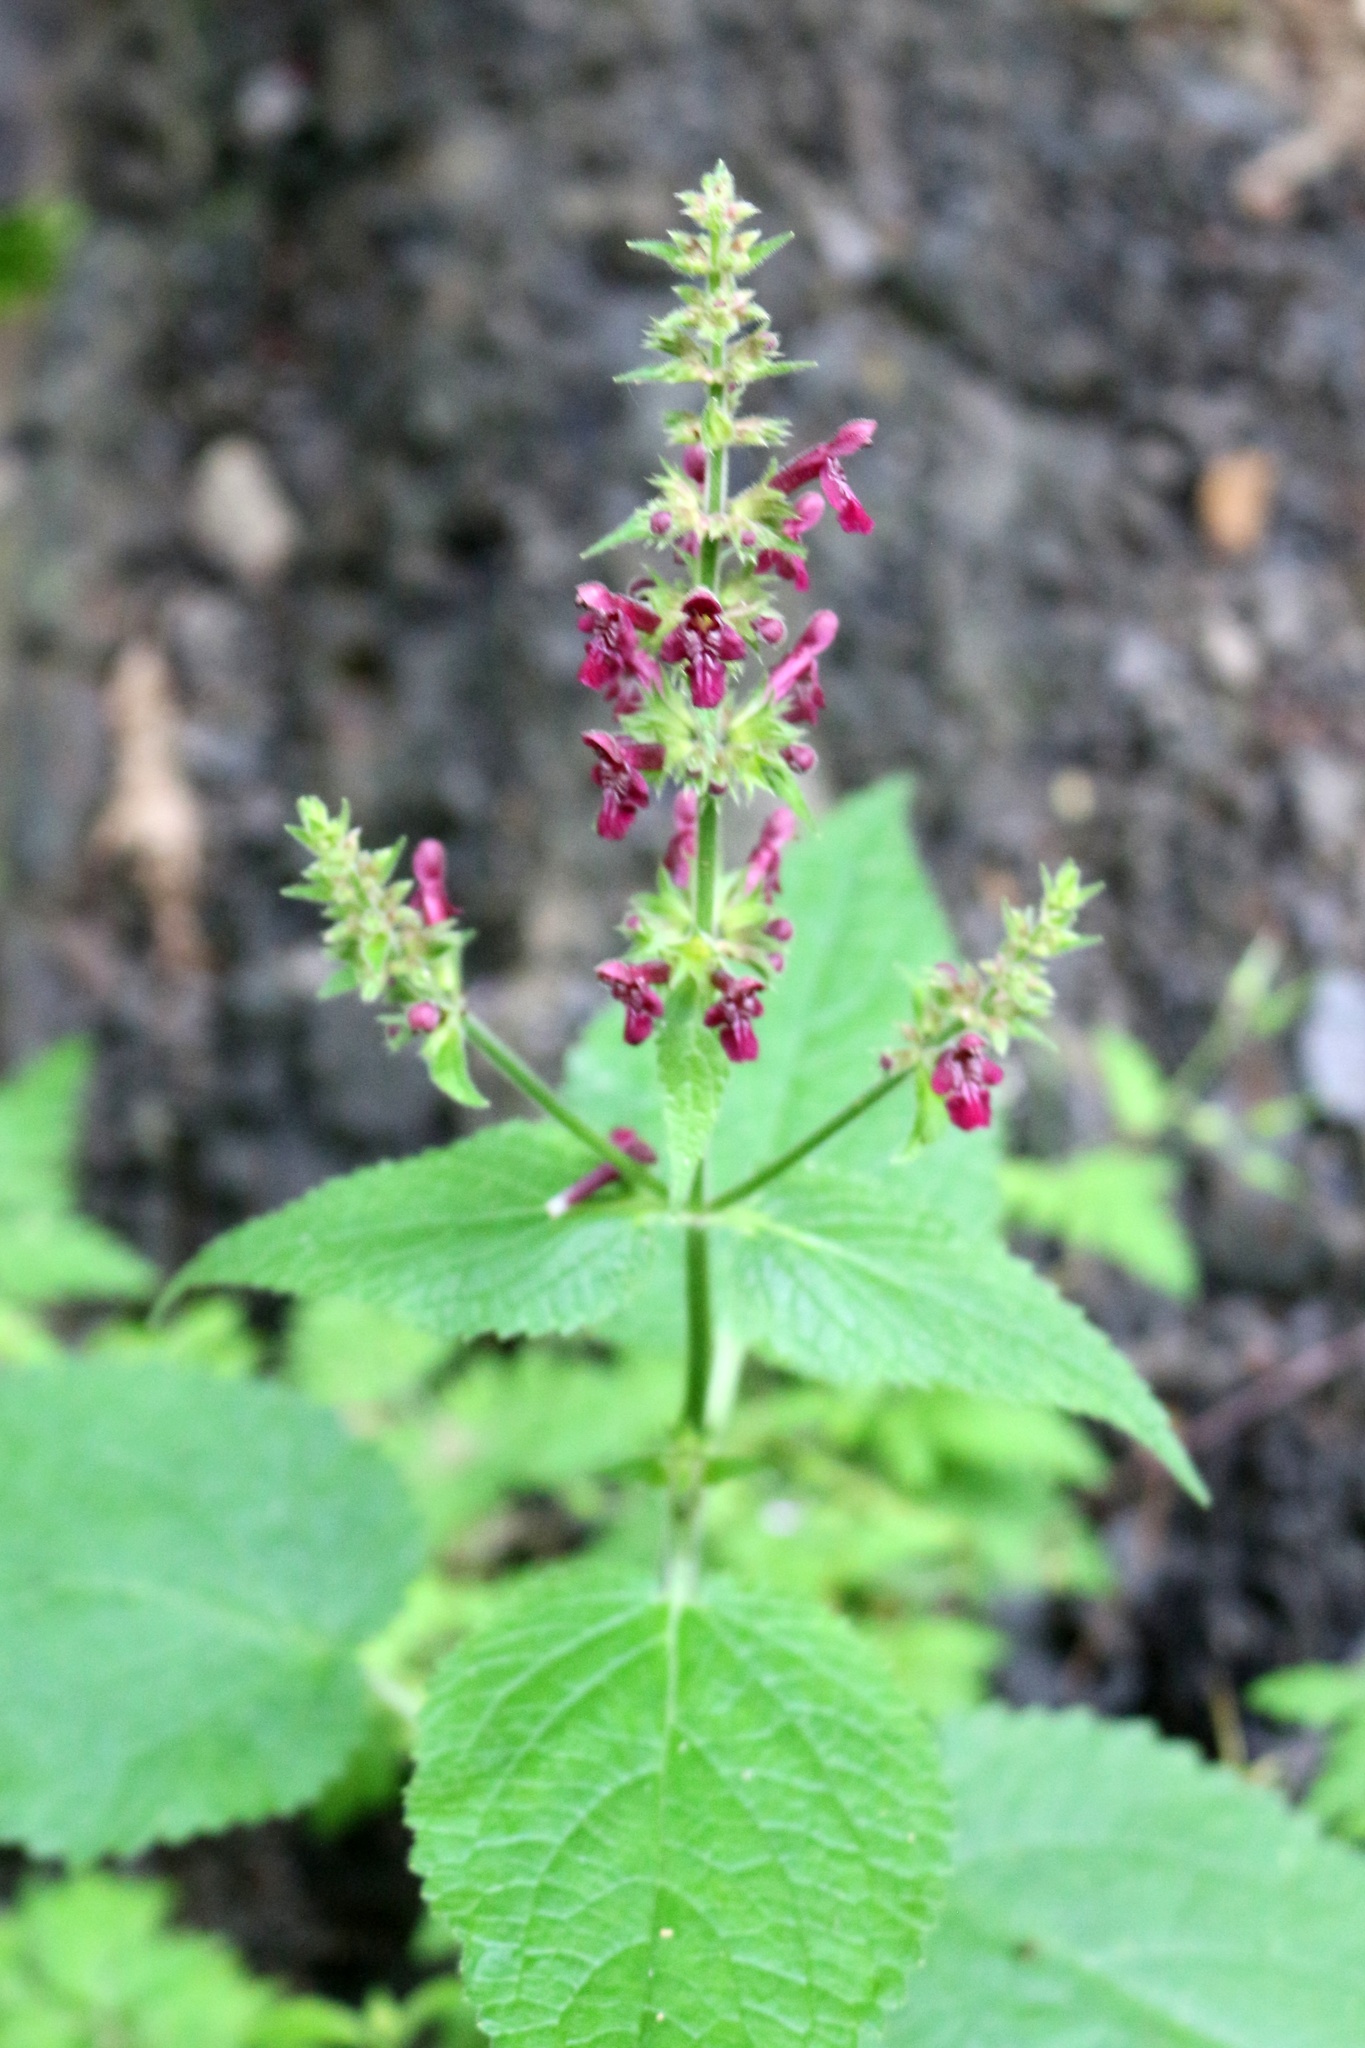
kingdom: Plantae
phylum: Tracheophyta
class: Magnoliopsida
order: Lamiales
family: Lamiaceae
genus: Stachys
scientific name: Stachys sylvatica
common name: Hedge woundwort
